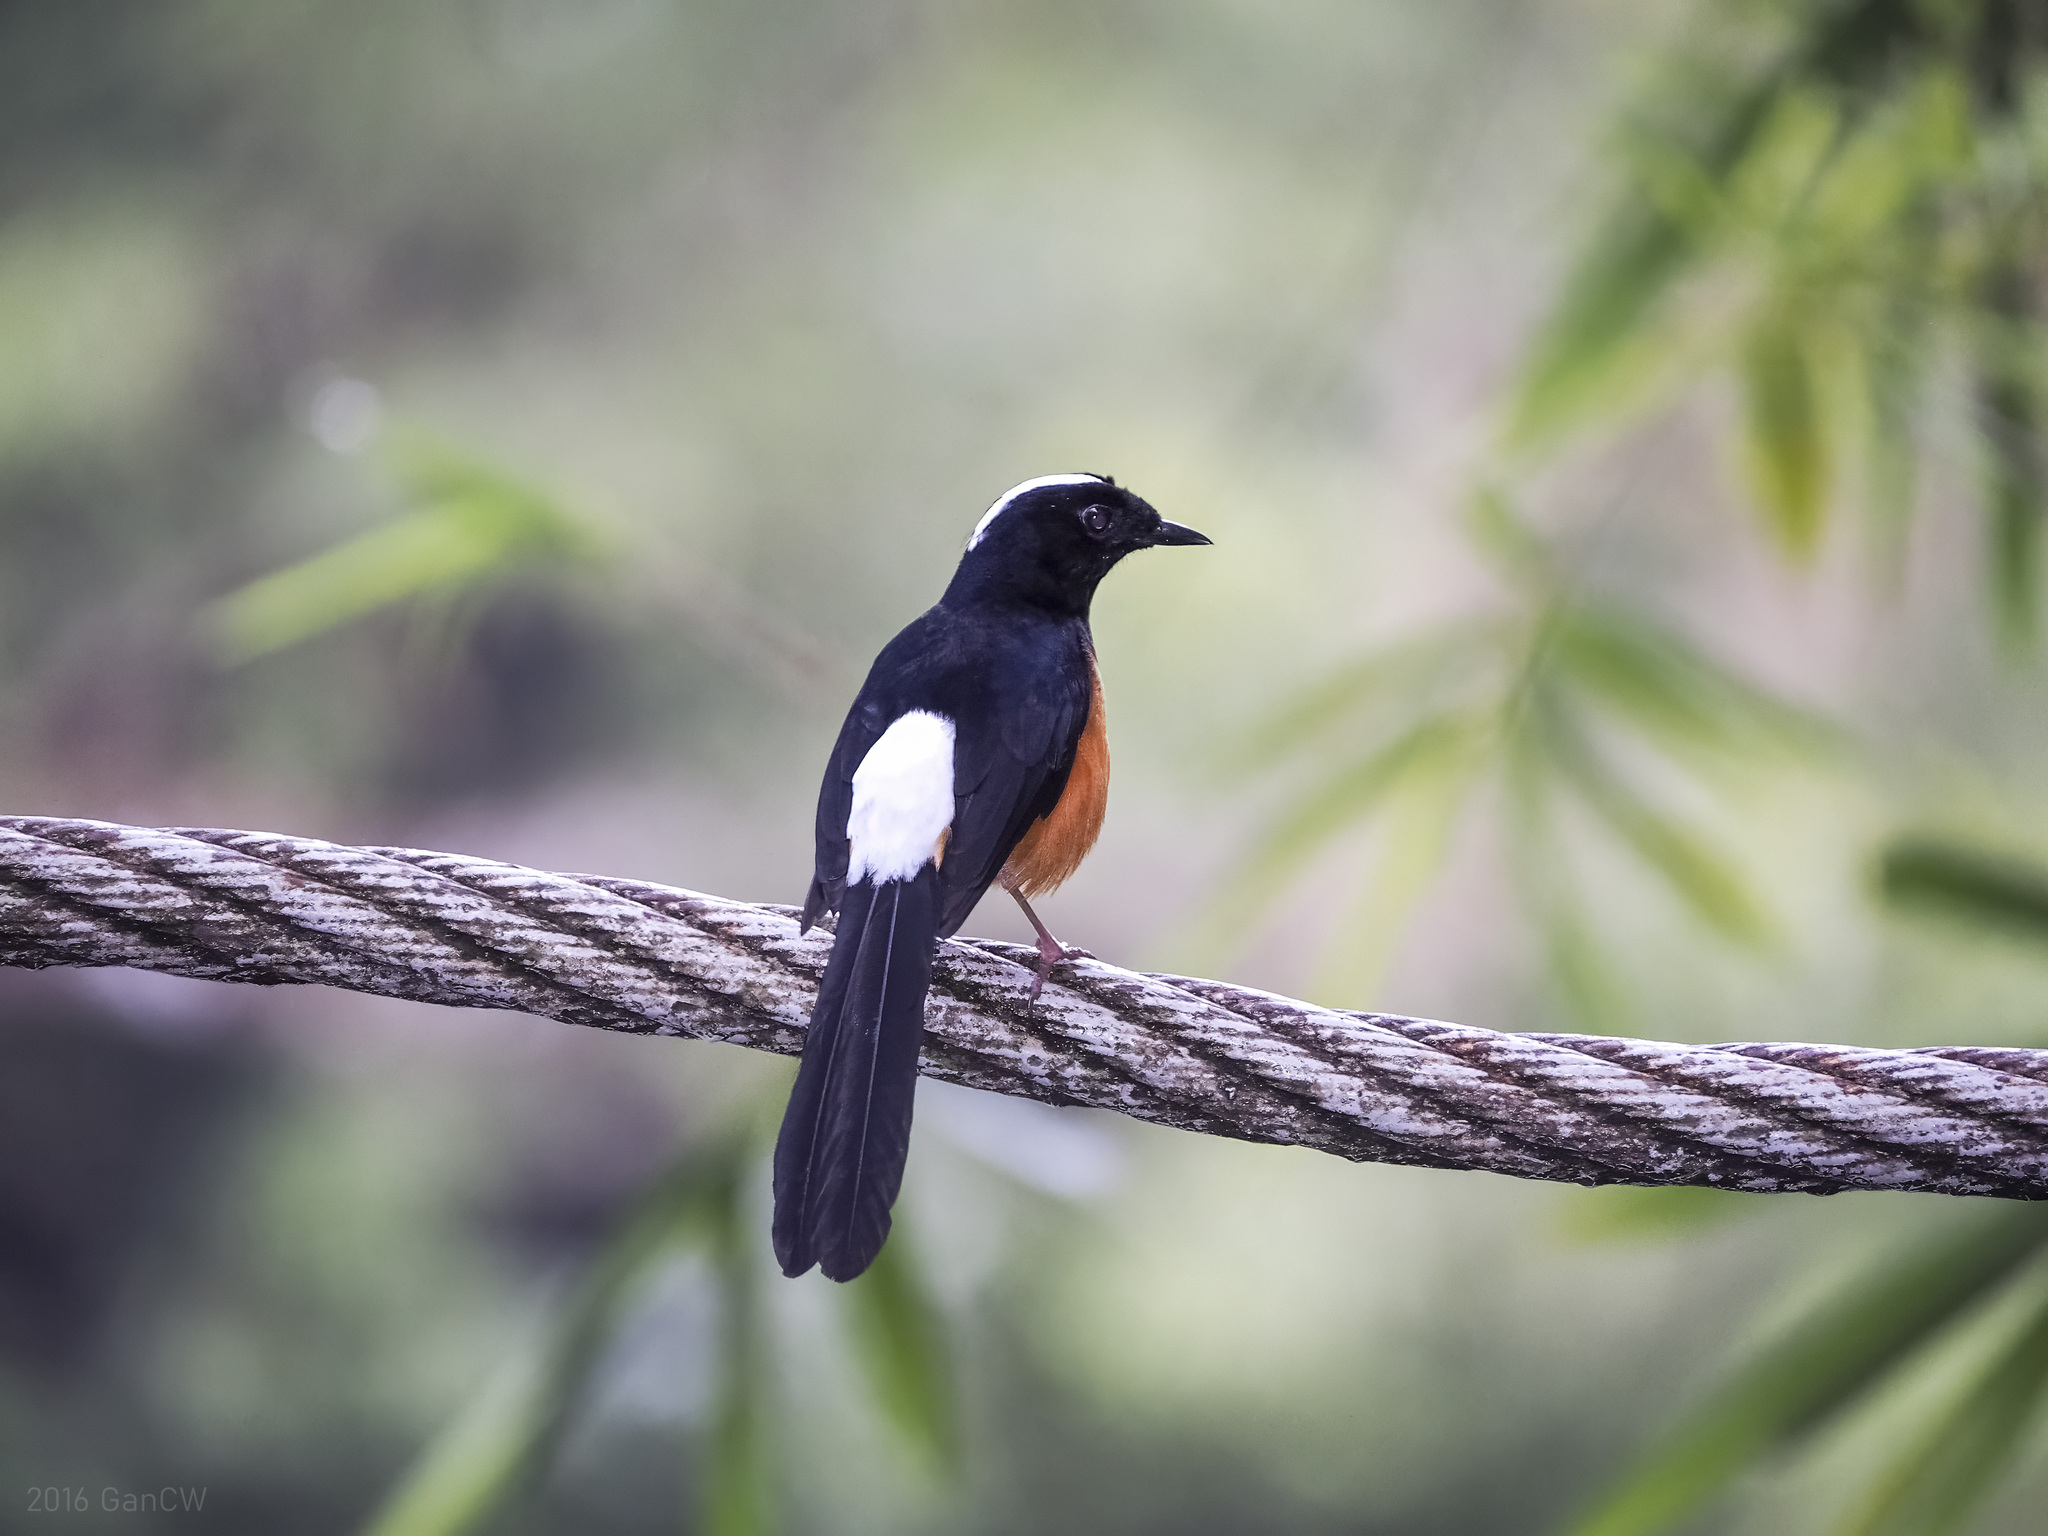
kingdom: Animalia
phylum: Chordata
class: Aves
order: Passeriformes
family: Muscicapidae
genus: Copsychus
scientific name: Copsychus stricklandii
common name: White-crowned shama
